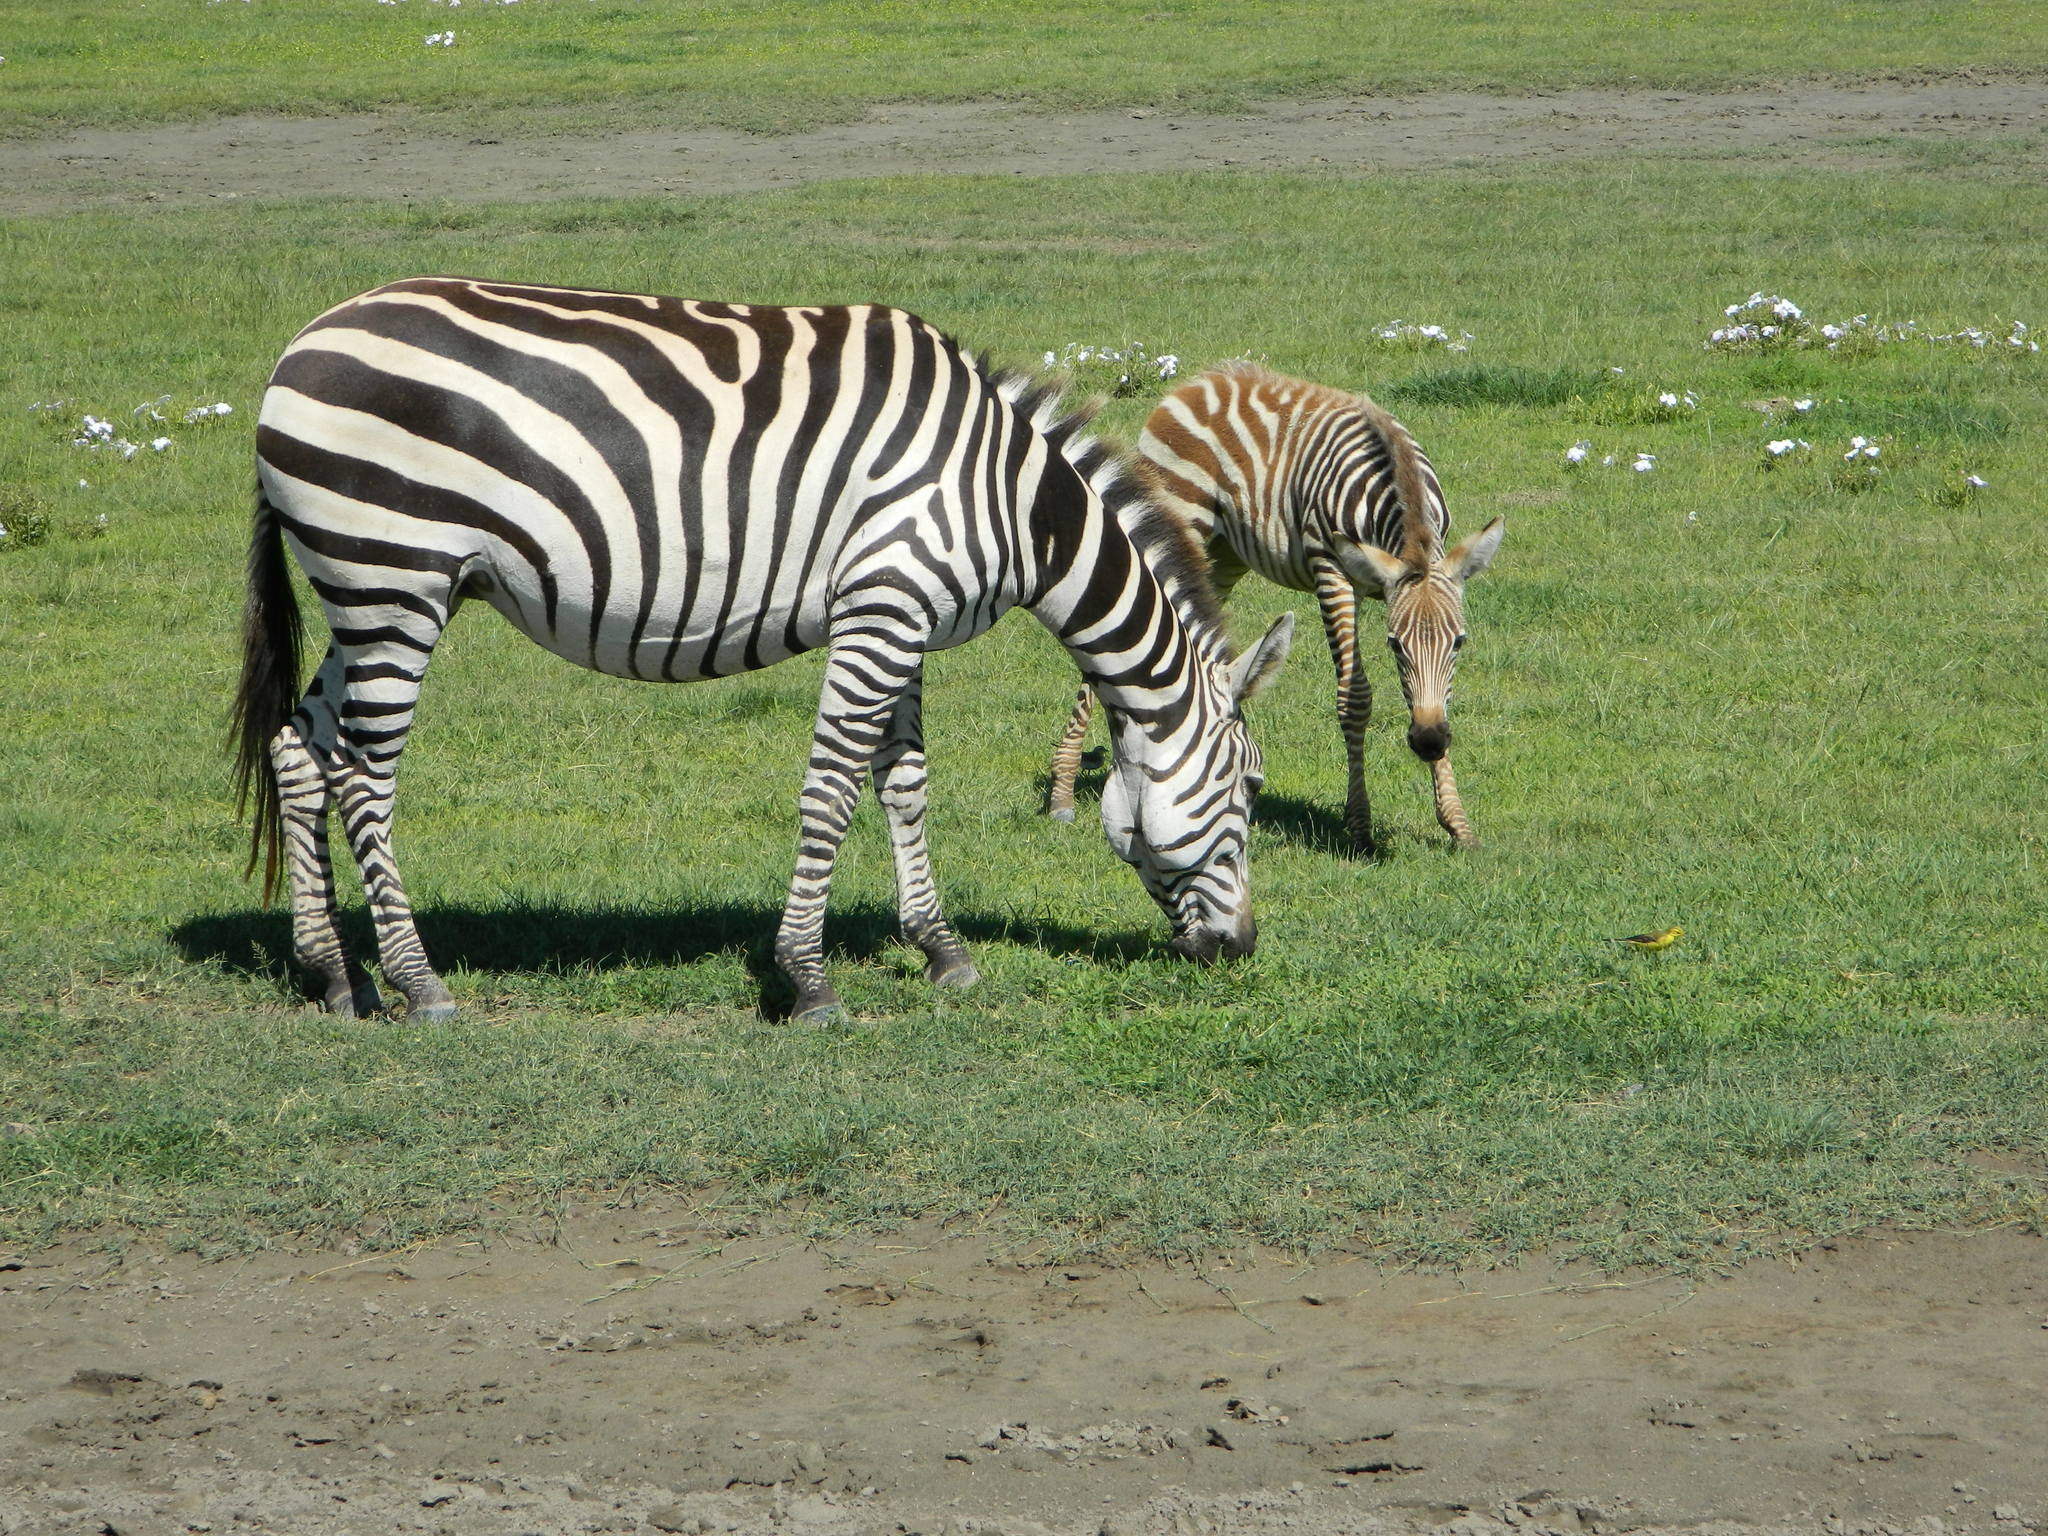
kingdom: Animalia
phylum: Chordata
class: Mammalia
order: Perissodactyla
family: Equidae
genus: Equus
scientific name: Equus quagga
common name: Plains zebra
